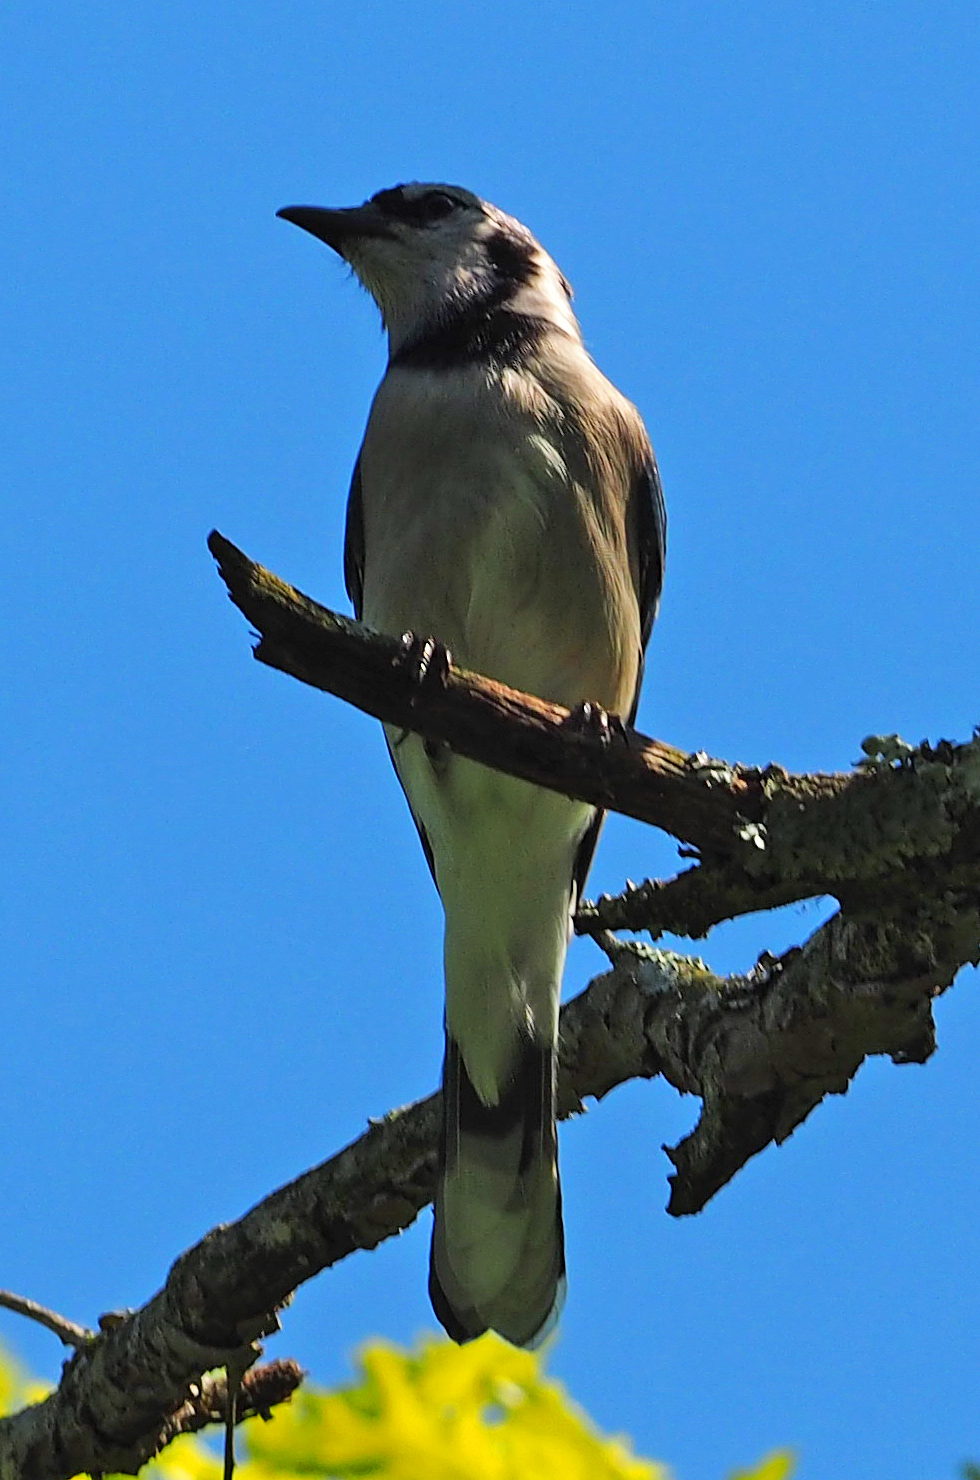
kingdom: Animalia
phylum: Chordata
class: Aves
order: Passeriformes
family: Corvidae
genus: Cyanocitta
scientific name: Cyanocitta cristata
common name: Blue jay
